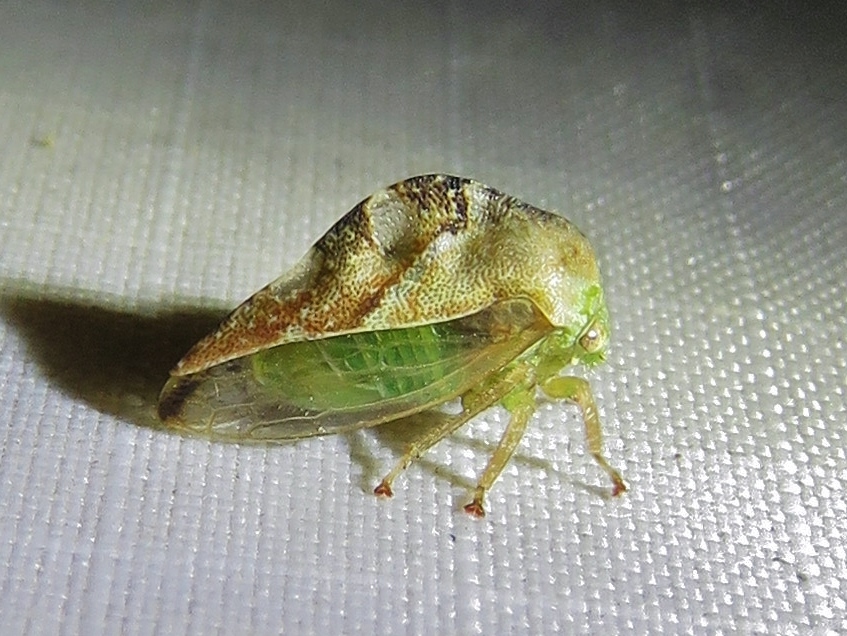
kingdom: Animalia
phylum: Arthropoda
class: Insecta
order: Hemiptera
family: Membracidae
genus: Cyrtolobus
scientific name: Cyrtolobus fenestrata
